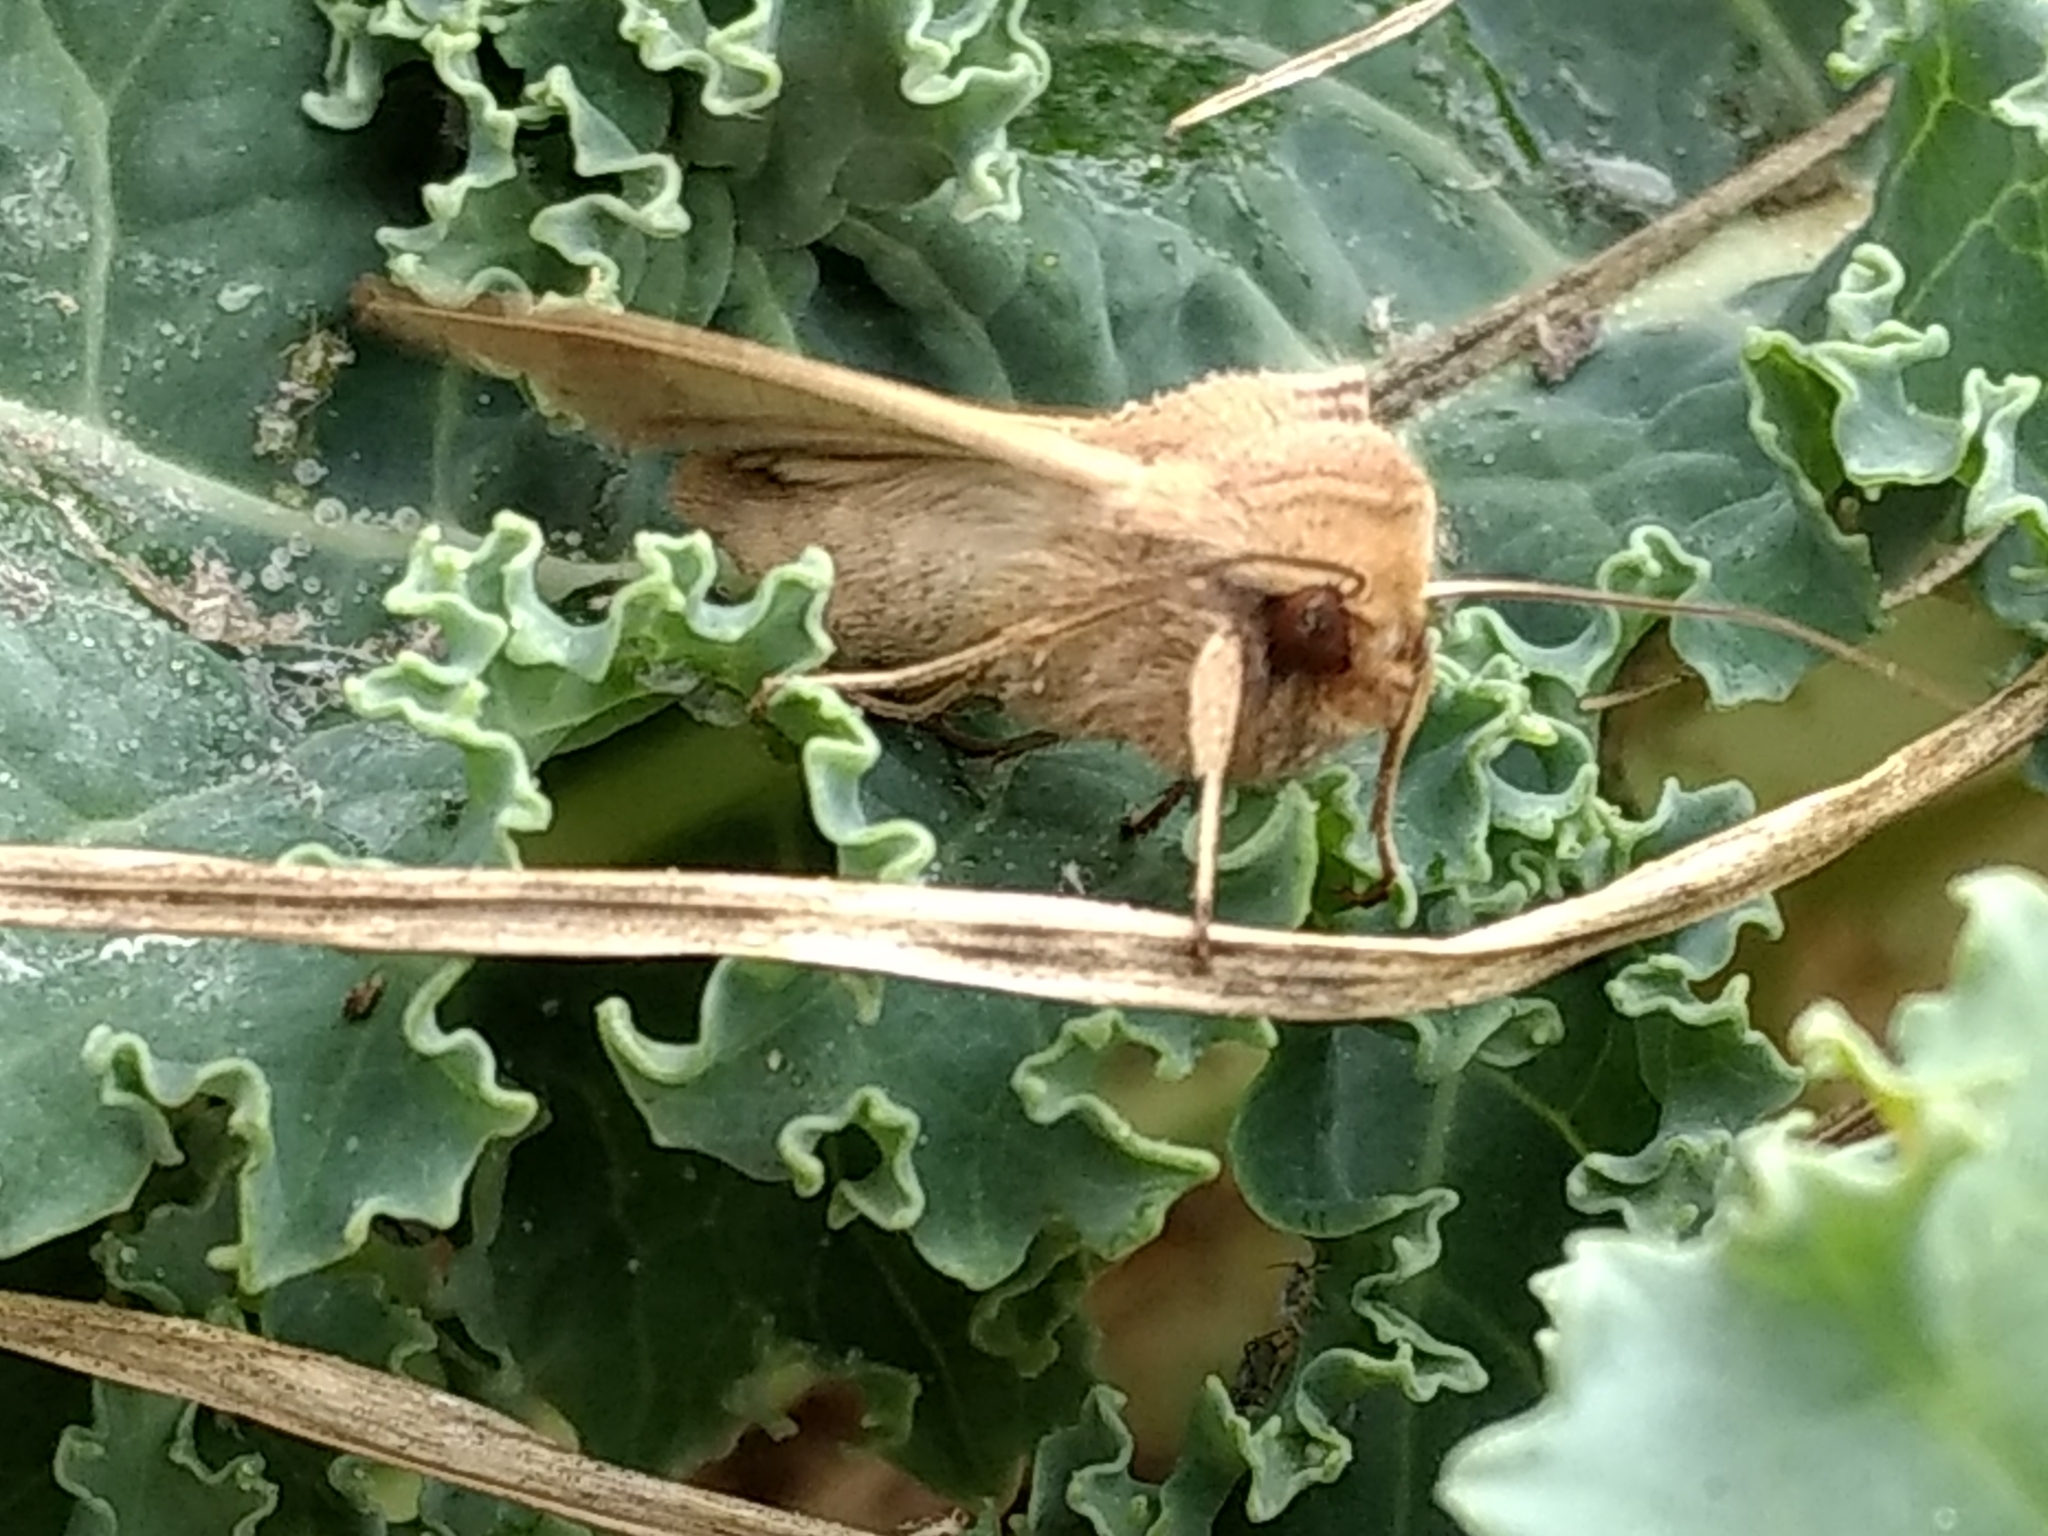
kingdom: Animalia
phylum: Arthropoda
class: Insecta
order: Lepidoptera
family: Noctuidae
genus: Mythimna
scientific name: Mythimna unipuncta
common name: White-speck
